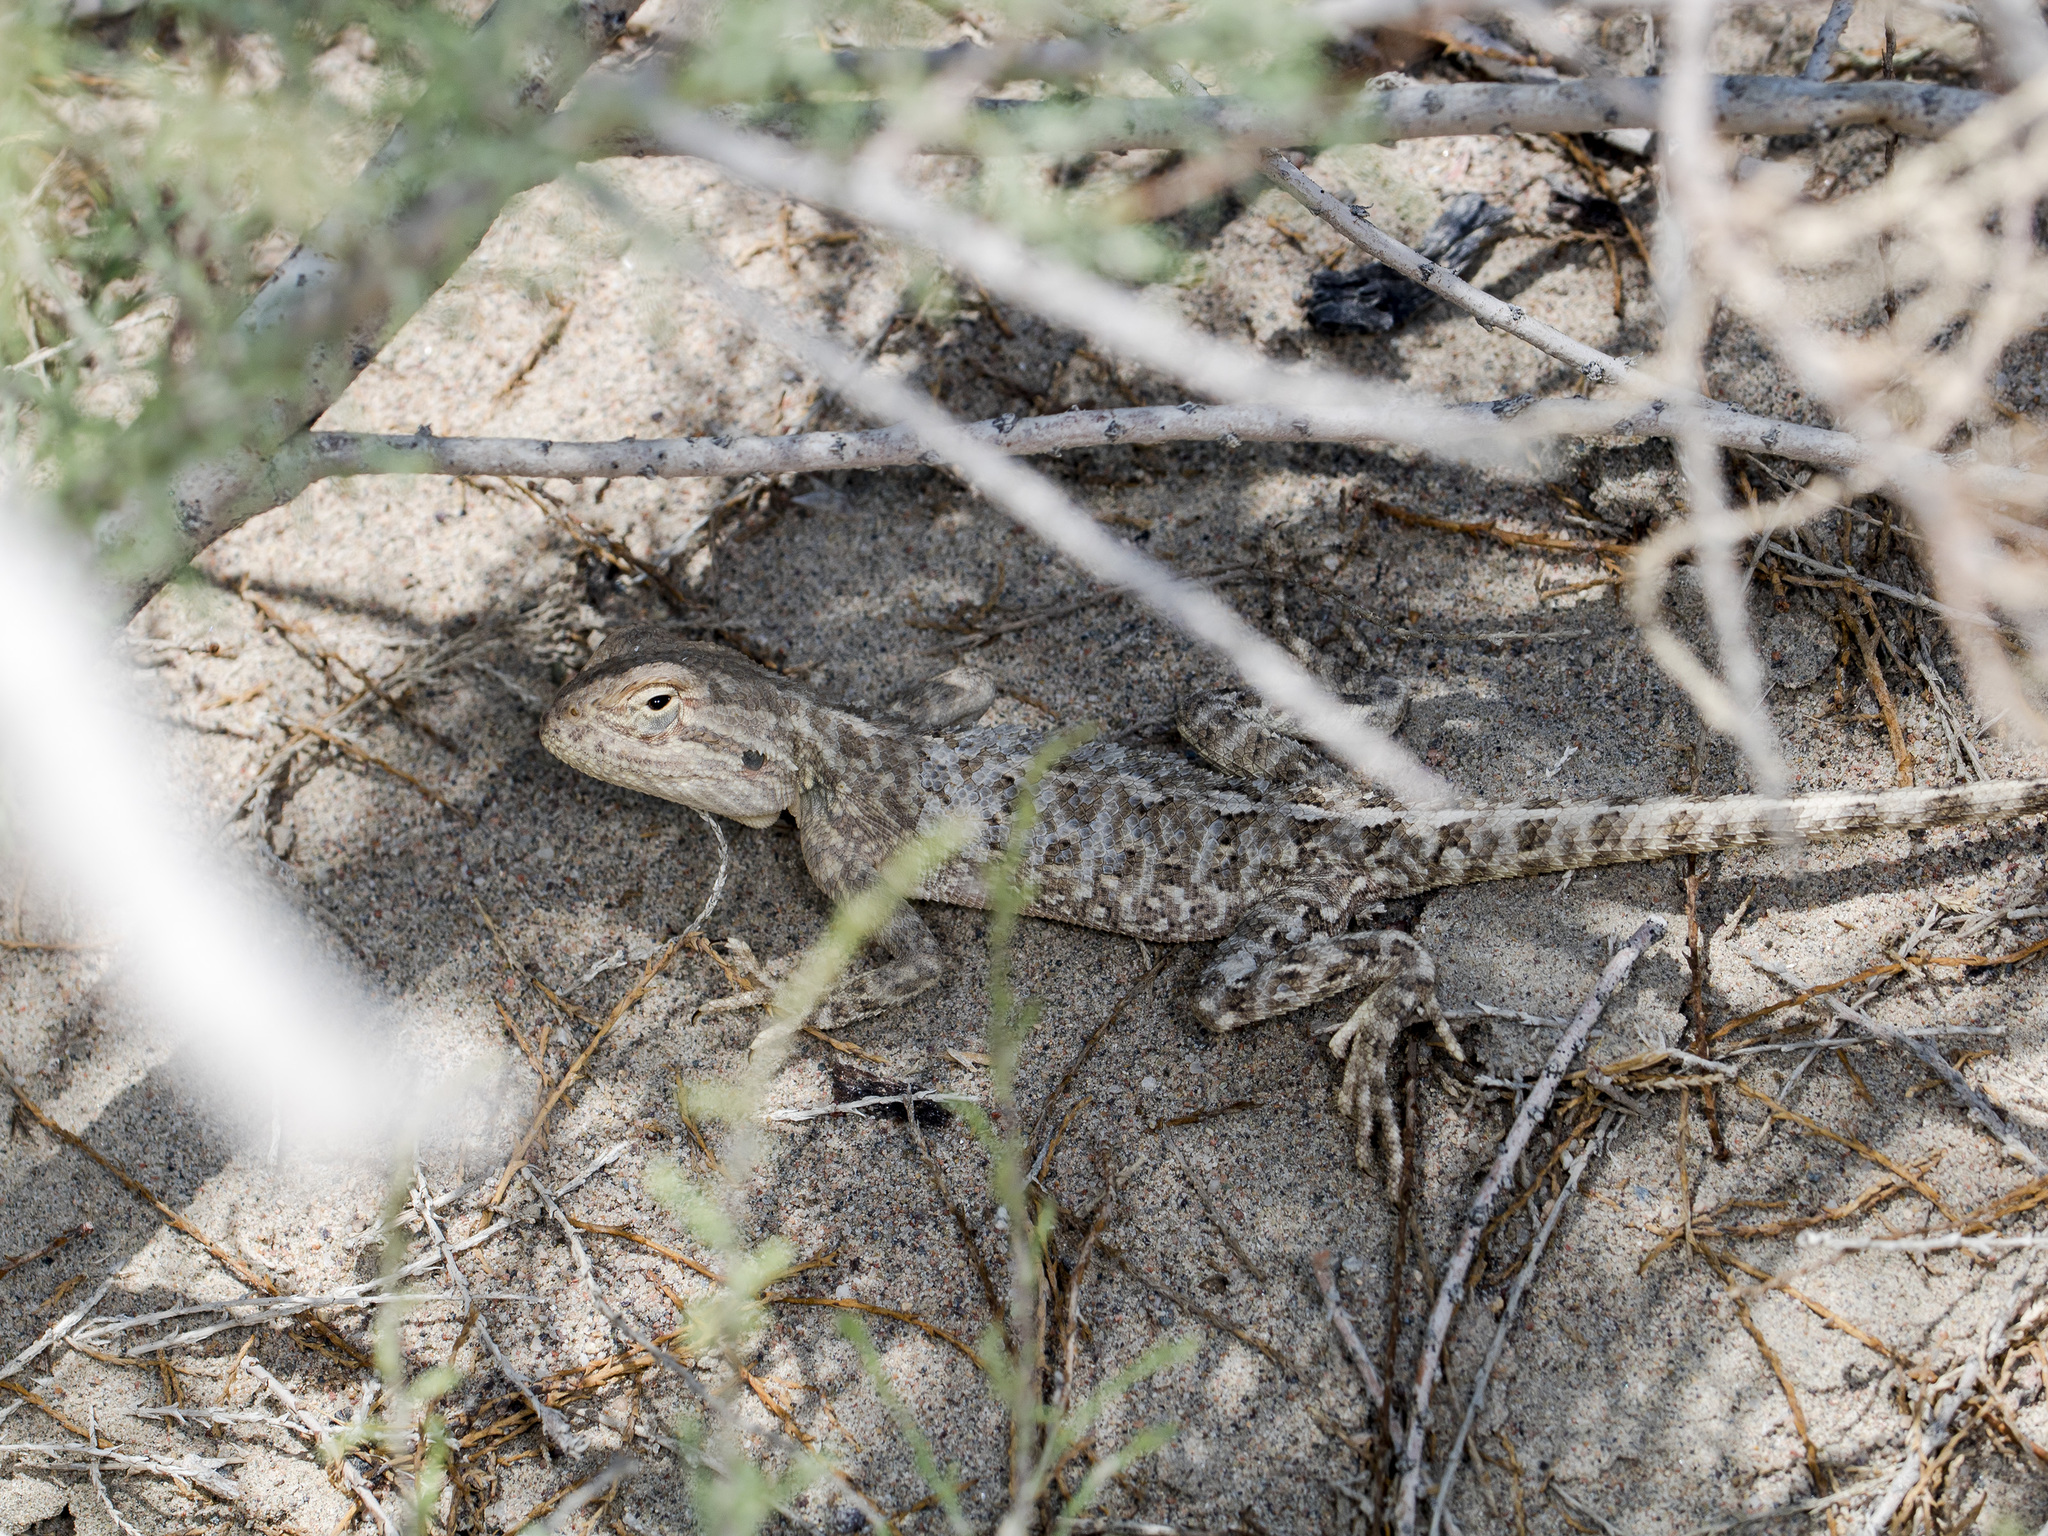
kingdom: Animalia
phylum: Chordata
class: Squamata
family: Agamidae
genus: Trapelus
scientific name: Trapelus sanguinolentus
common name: Steppe agama
